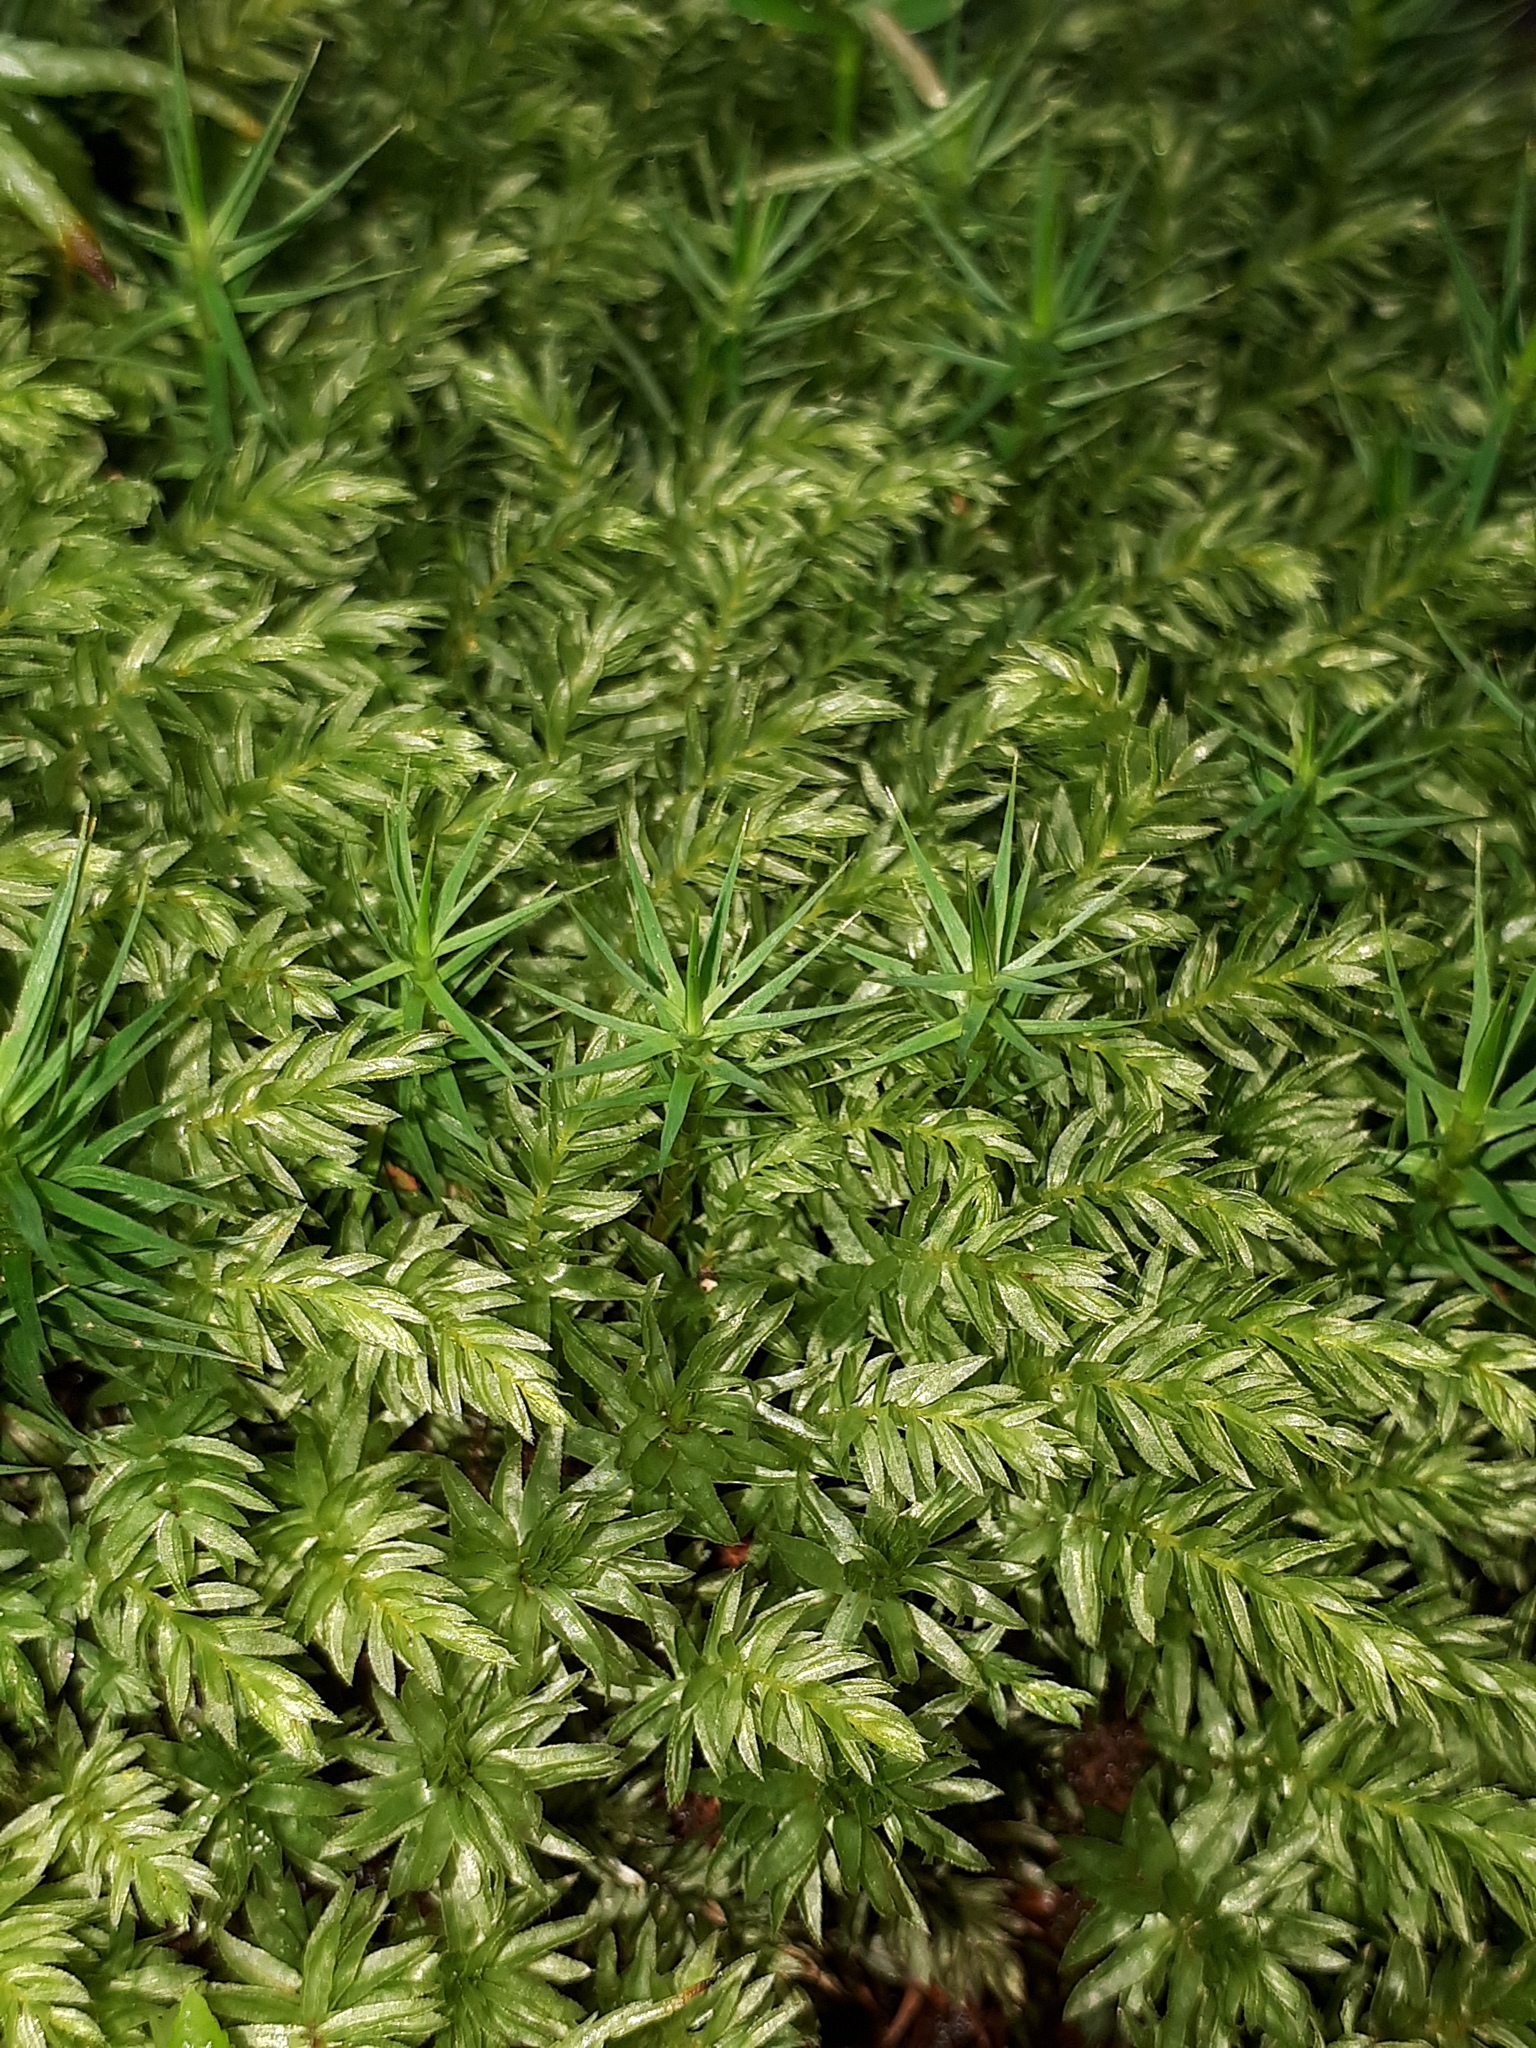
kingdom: Plantae
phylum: Bryophyta
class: Bryopsida
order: Bryales
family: Mniaceae
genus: Mnium
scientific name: Mnium hornum
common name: Swan's-neck leafy moss
